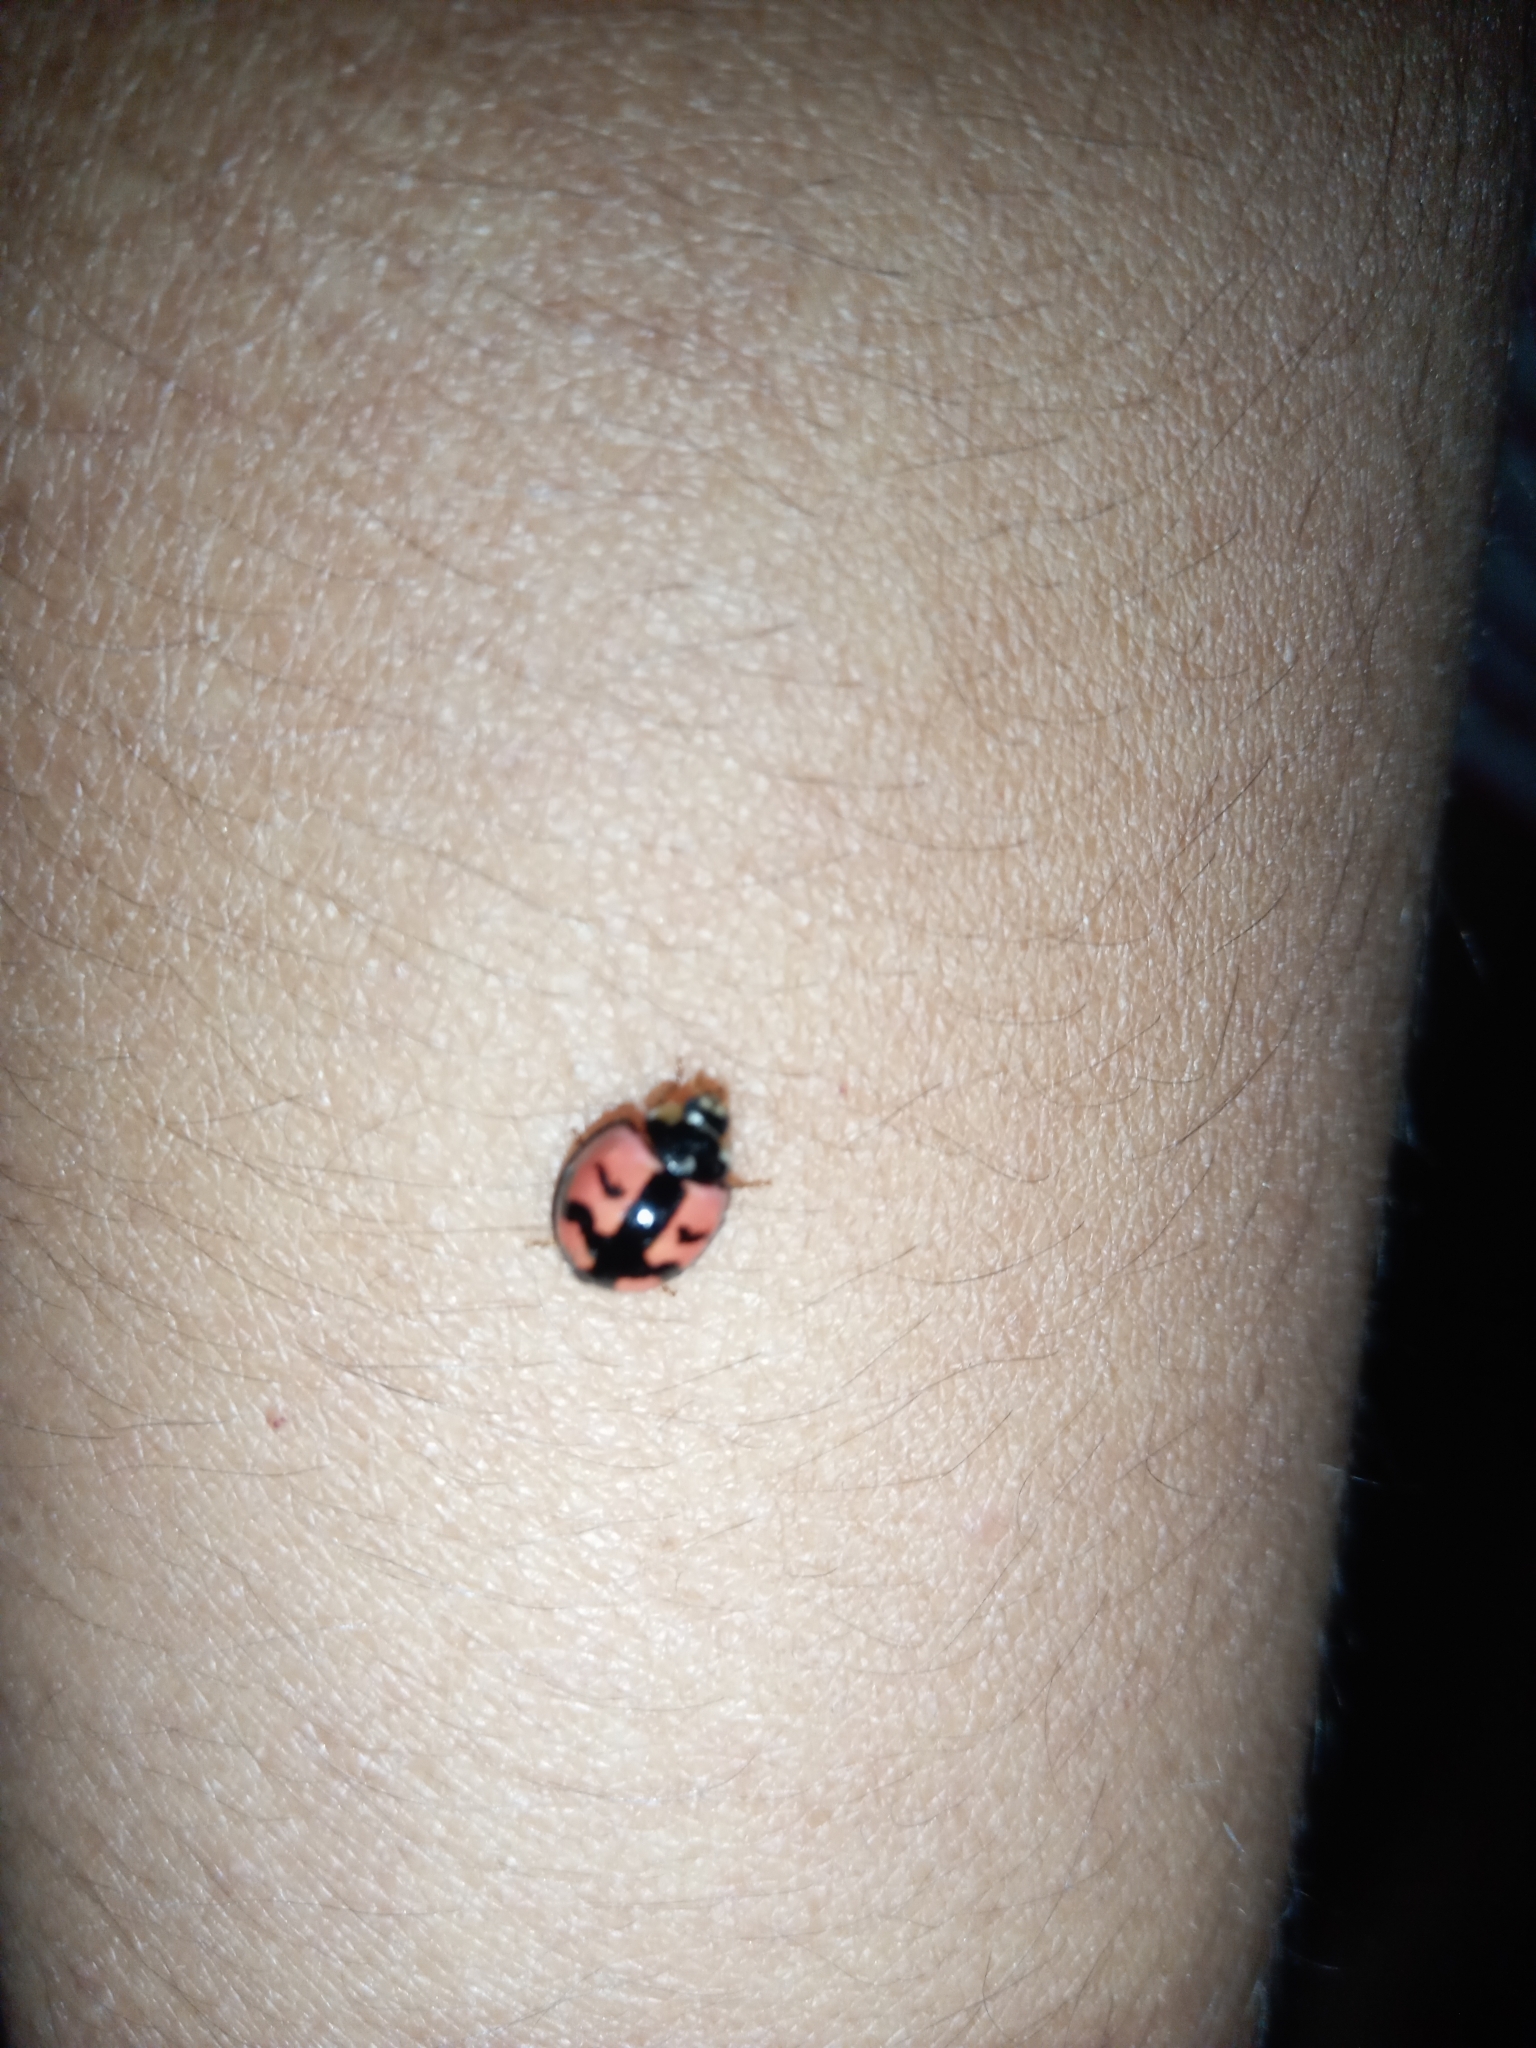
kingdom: Animalia
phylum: Arthropoda
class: Insecta
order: Coleoptera
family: Coccinellidae
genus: Cheilomenes
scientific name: Cheilomenes sexmaculata
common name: Ladybird beetle
